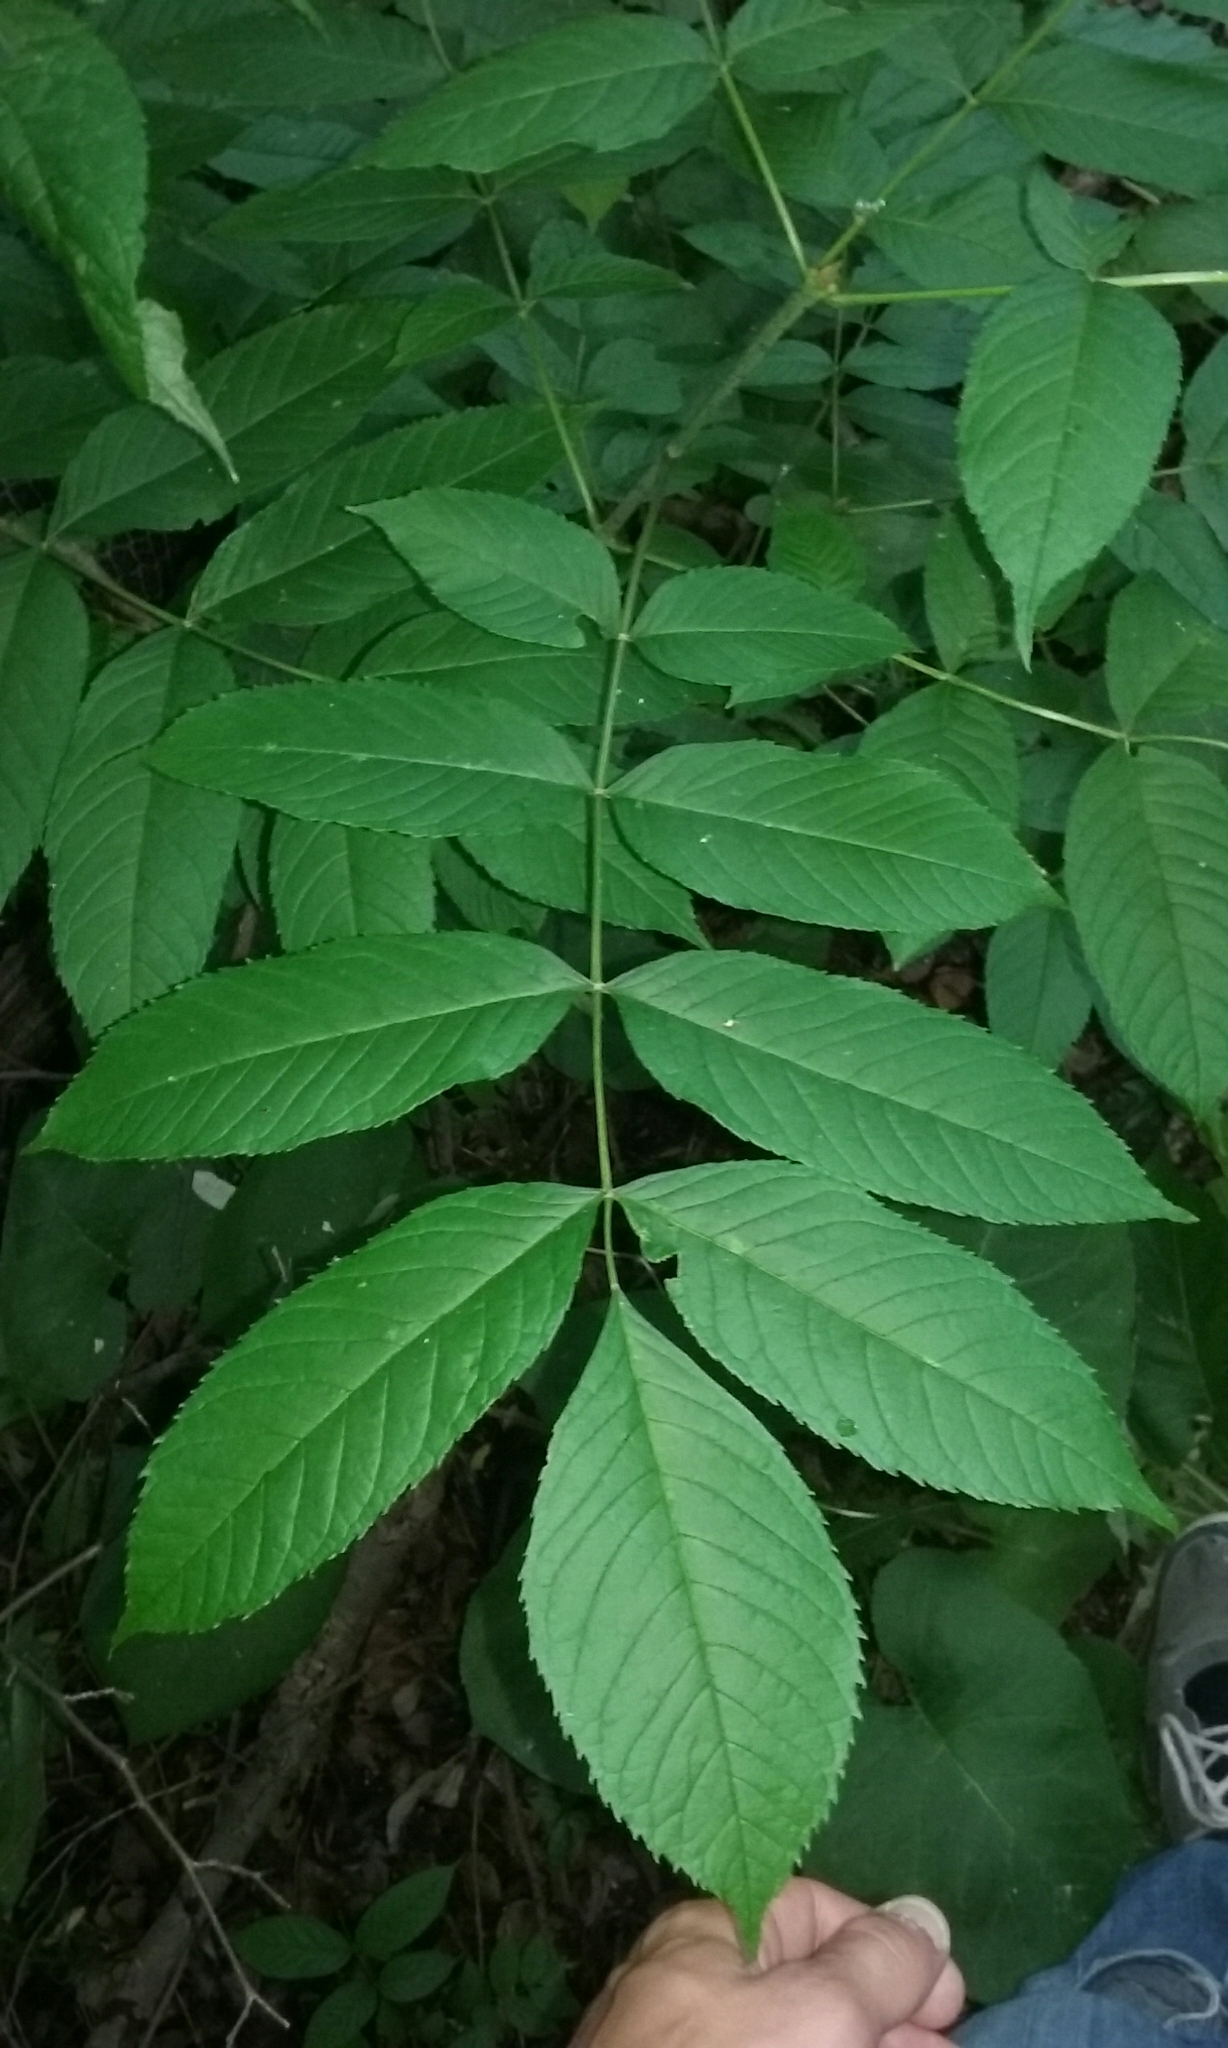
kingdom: Plantae
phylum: Tracheophyta
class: Magnoliopsida
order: Lamiales
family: Oleaceae
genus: Fraxinus
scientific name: Fraxinus nigra
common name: Black ash
